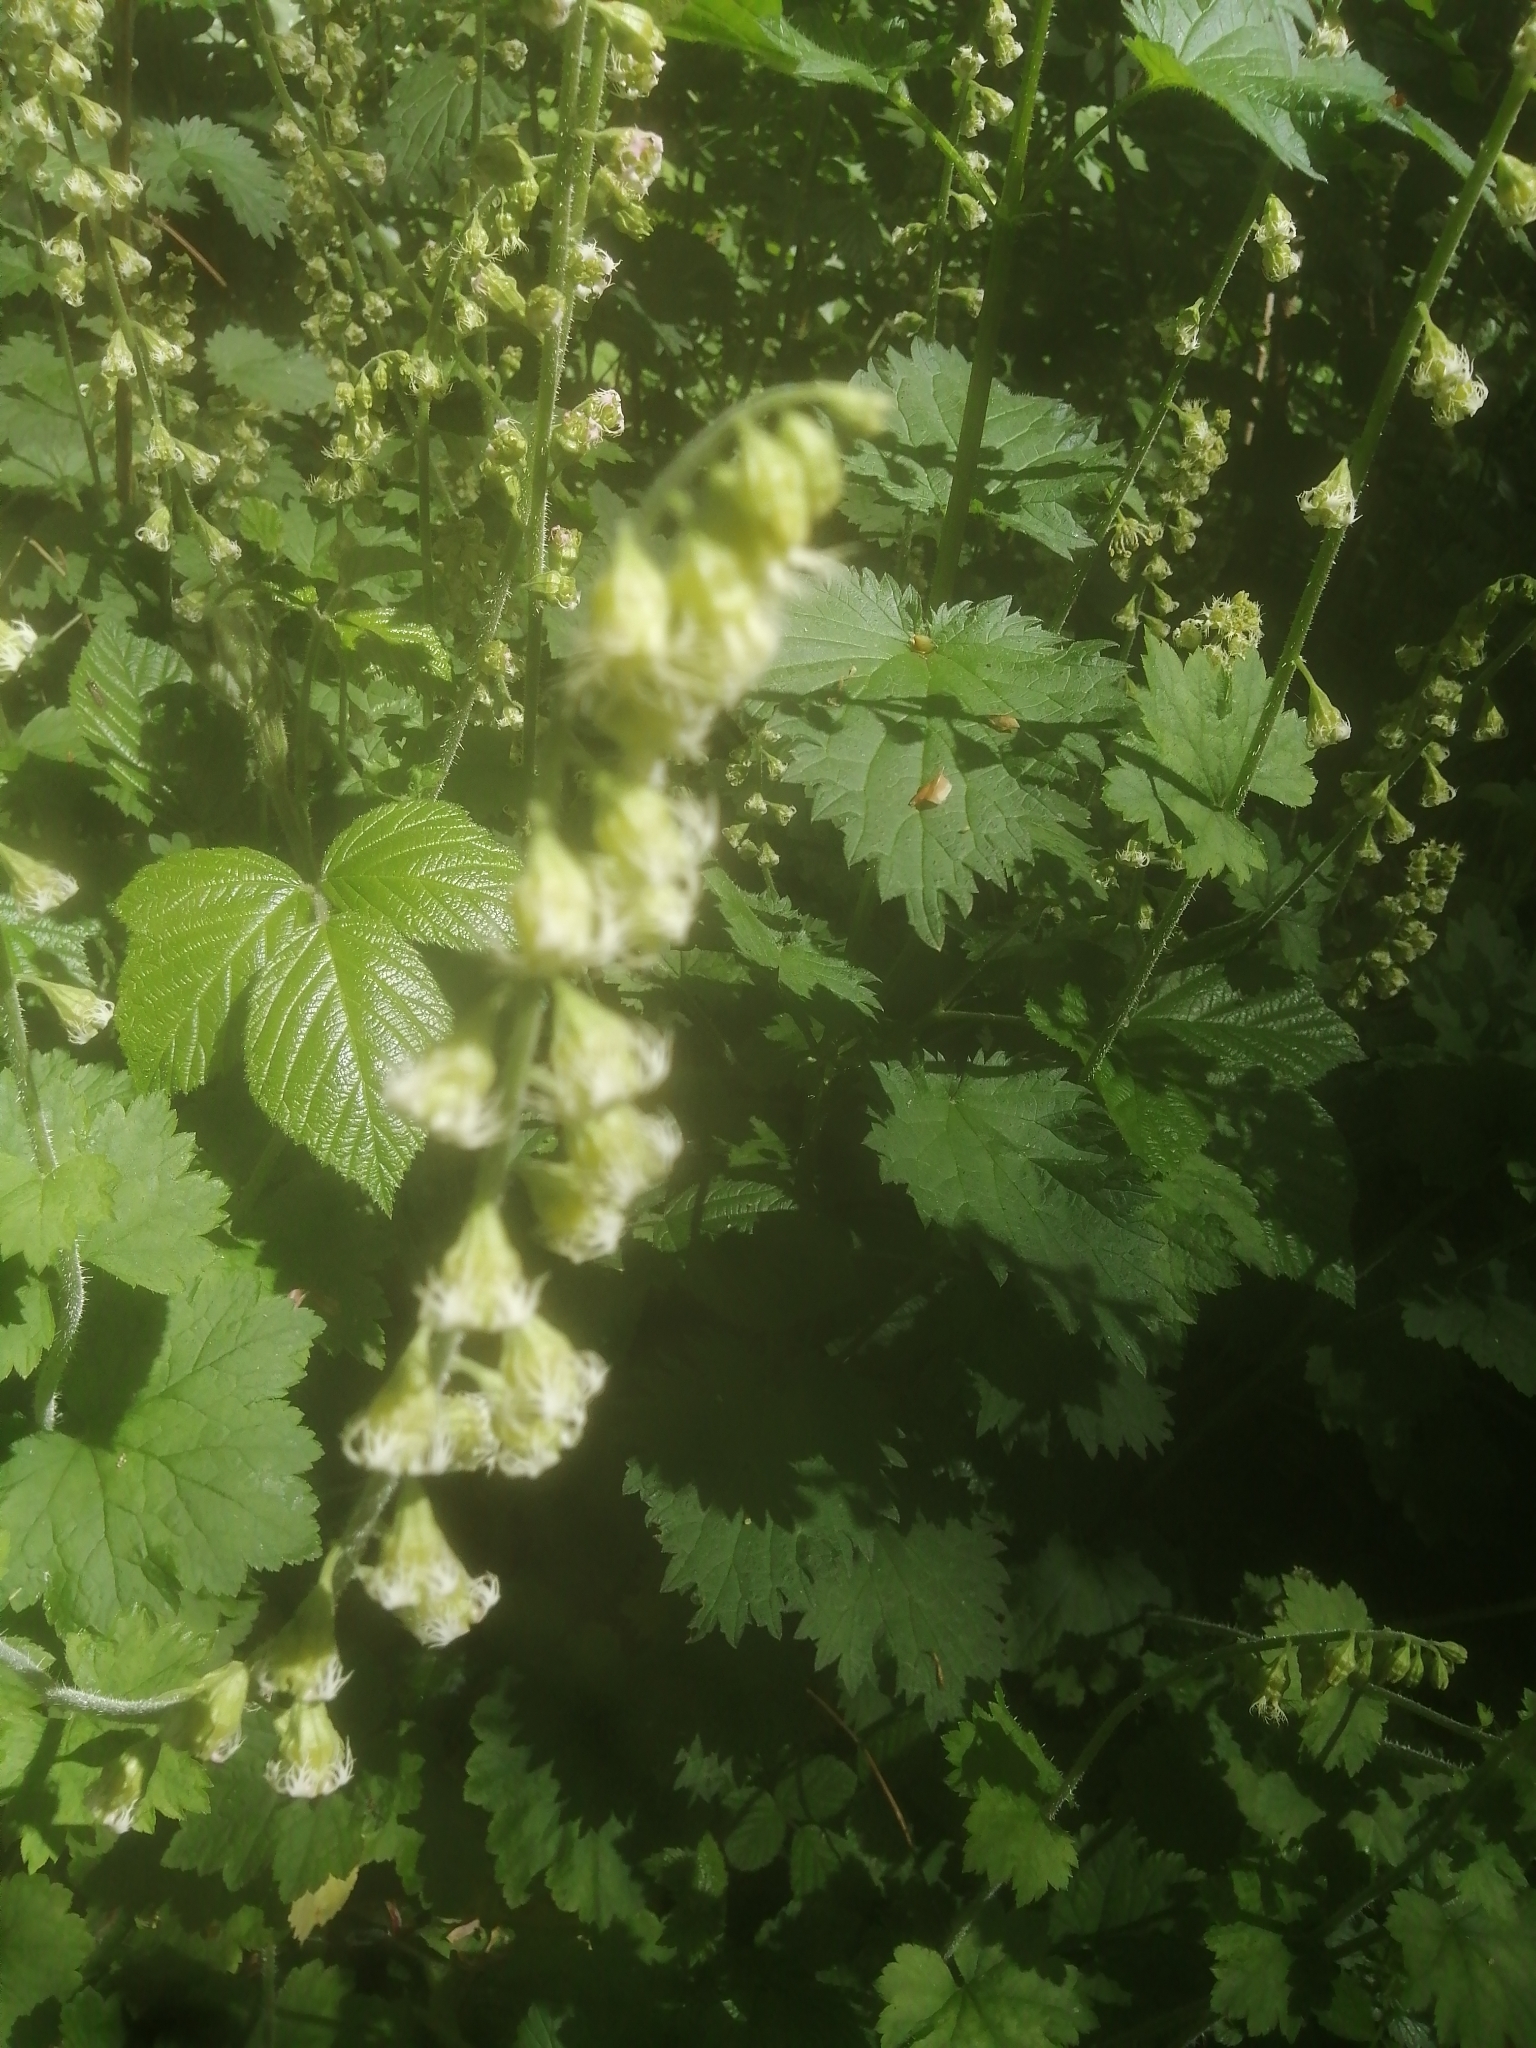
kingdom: Plantae
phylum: Tracheophyta
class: Magnoliopsida
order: Saxifragales
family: Saxifragaceae
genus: Tellima
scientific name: Tellima grandiflora
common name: Fringecups
